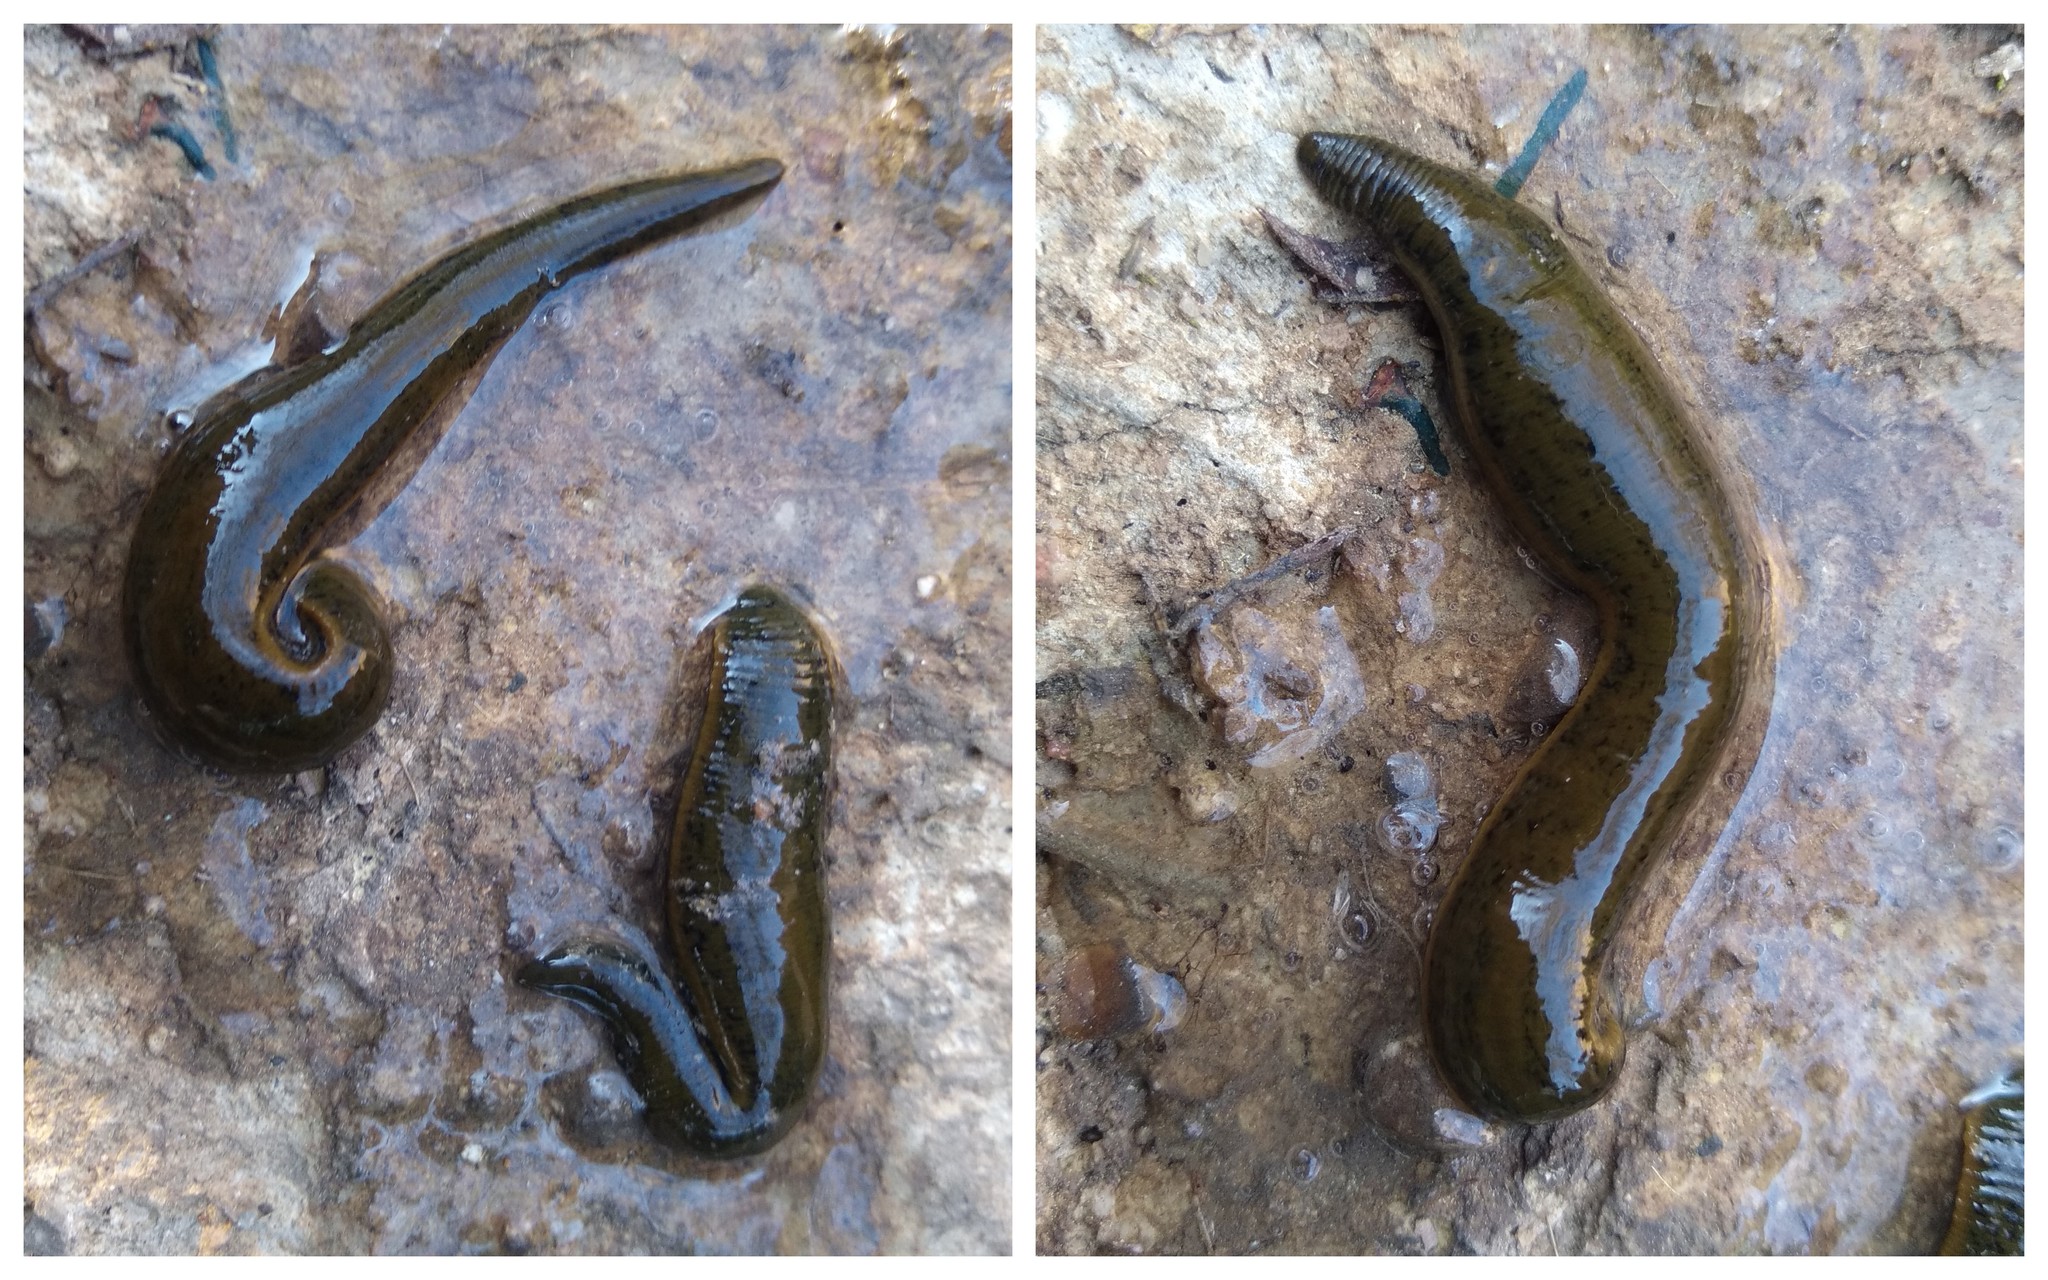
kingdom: Animalia
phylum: Annelida
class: Clitellata
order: Arhynchobdellida
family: Haemopidae
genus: Haemopis
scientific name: Haemopis sanguisuga
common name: Horse leech
